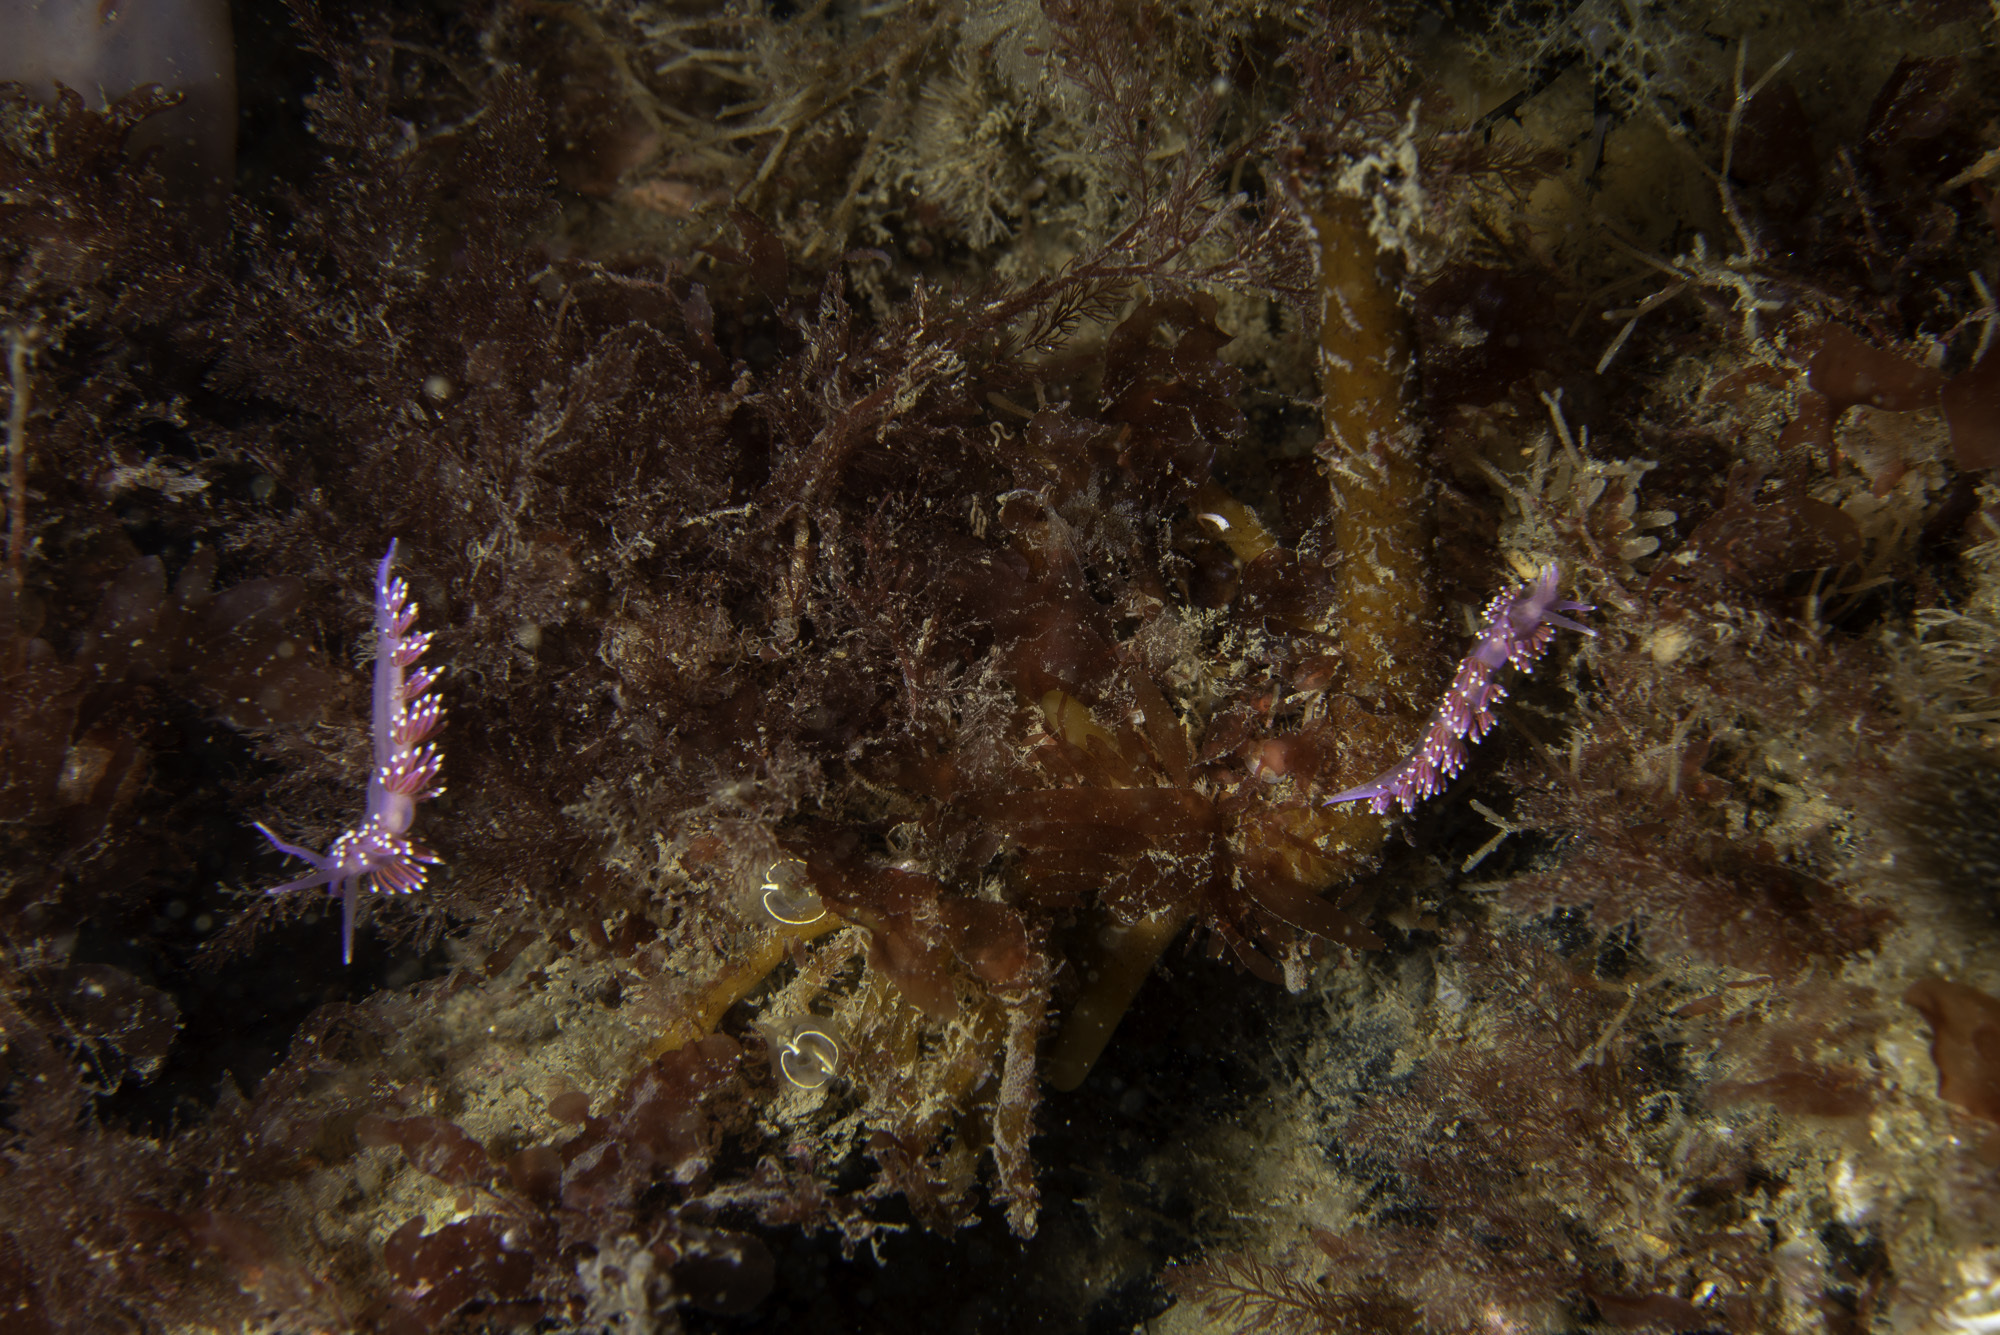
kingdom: Animalia
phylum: Mollusca
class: Gastropoda
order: Nudibranchia
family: Flabellinidae
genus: Edmundsella
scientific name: Edmundsella pedata
